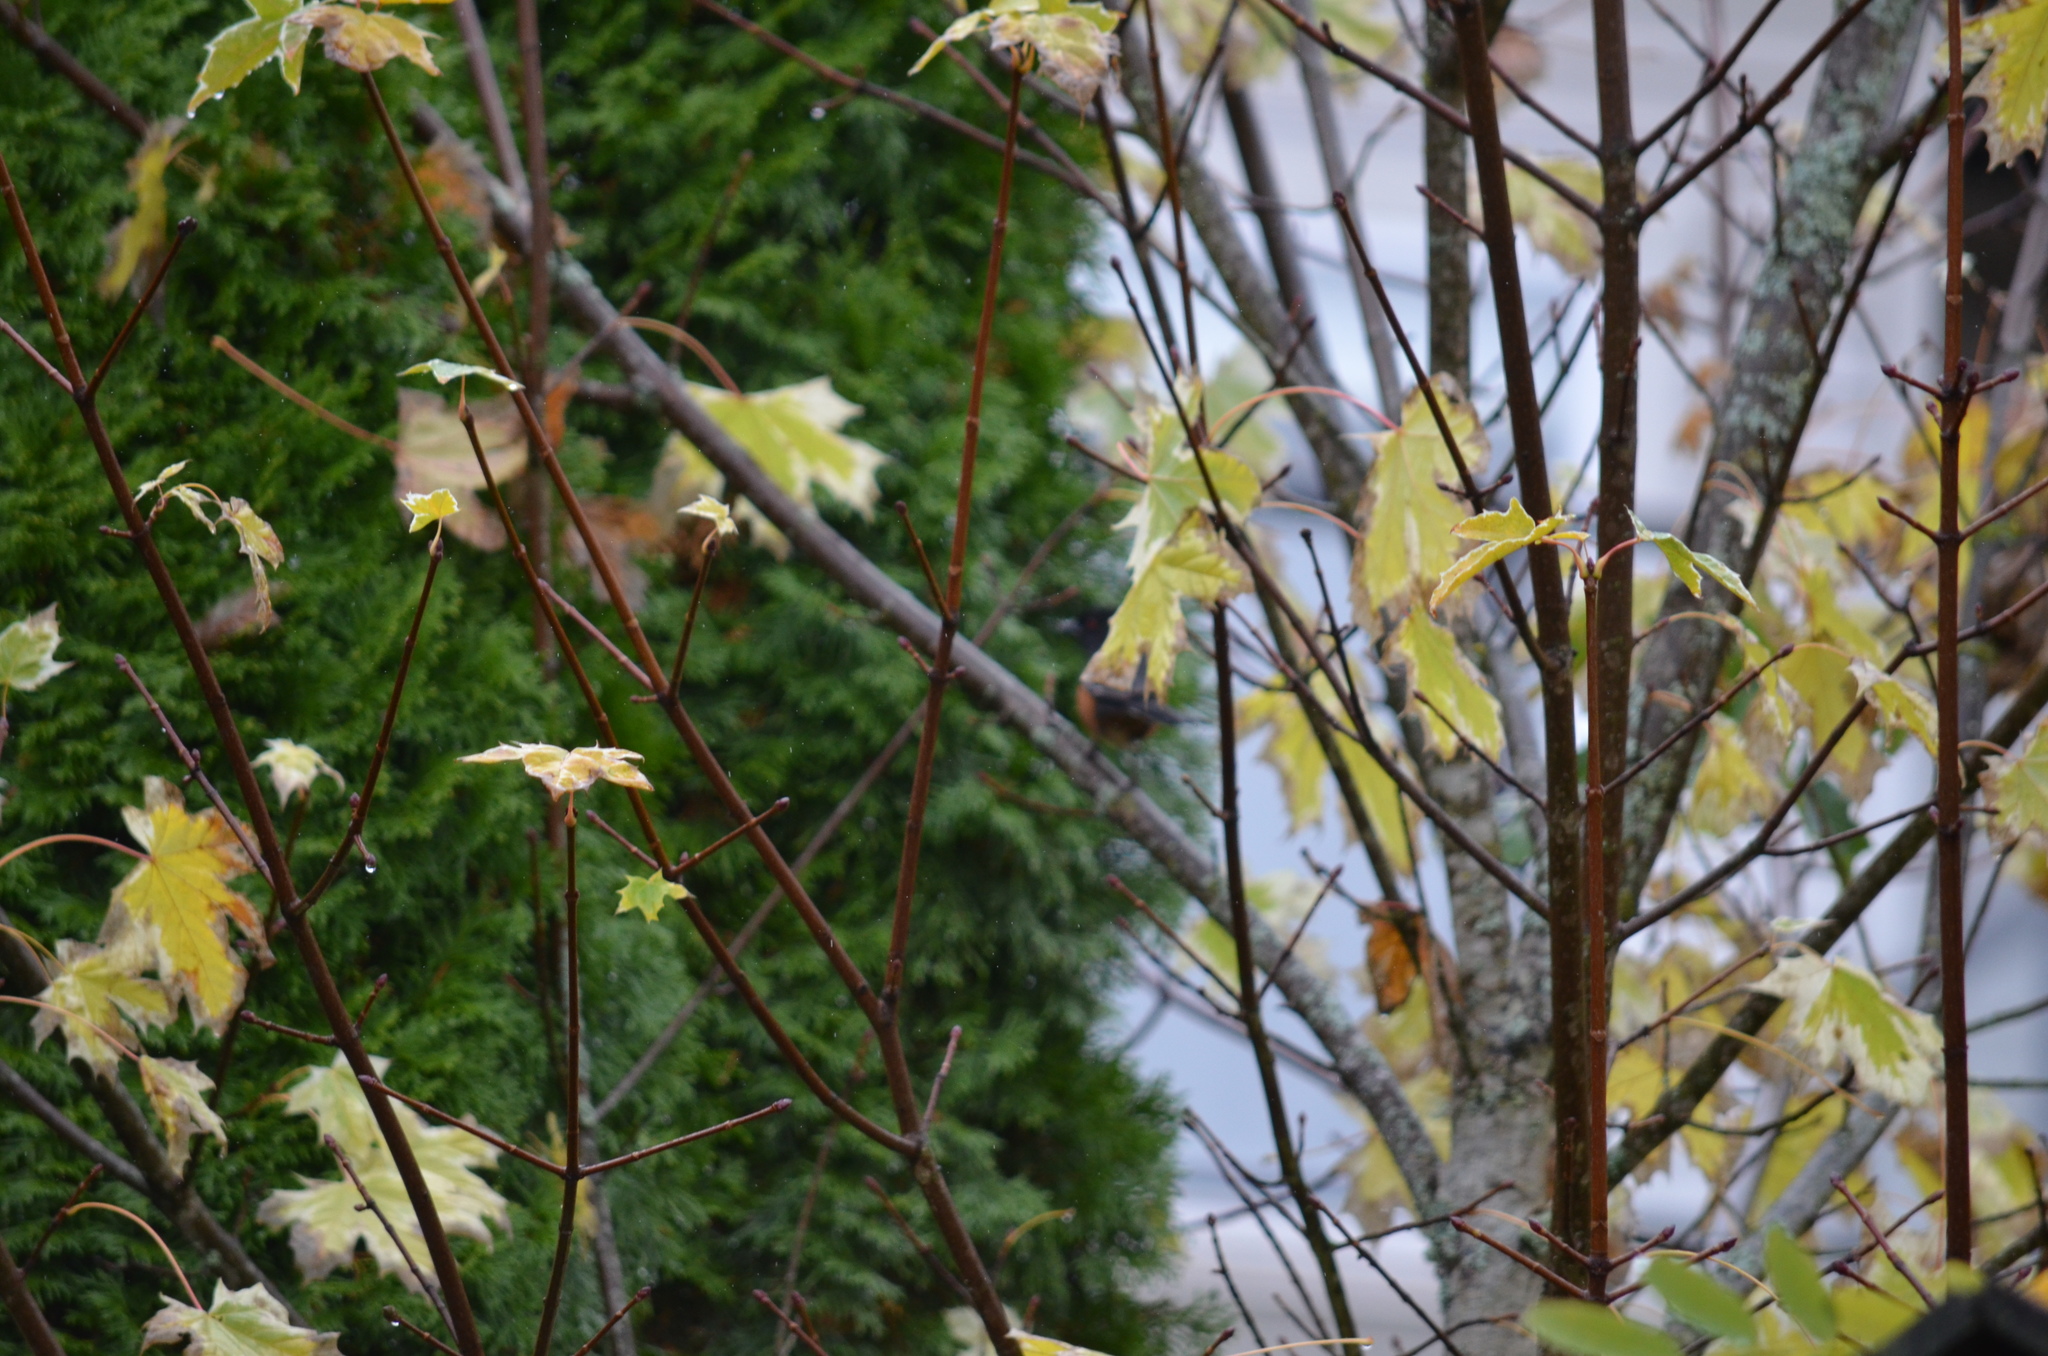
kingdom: Animalia
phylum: Chordata
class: Aves
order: Passeriformes
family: Passerellidae
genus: Pipilo
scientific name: Pipilo maculatus
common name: Spotted towhee
